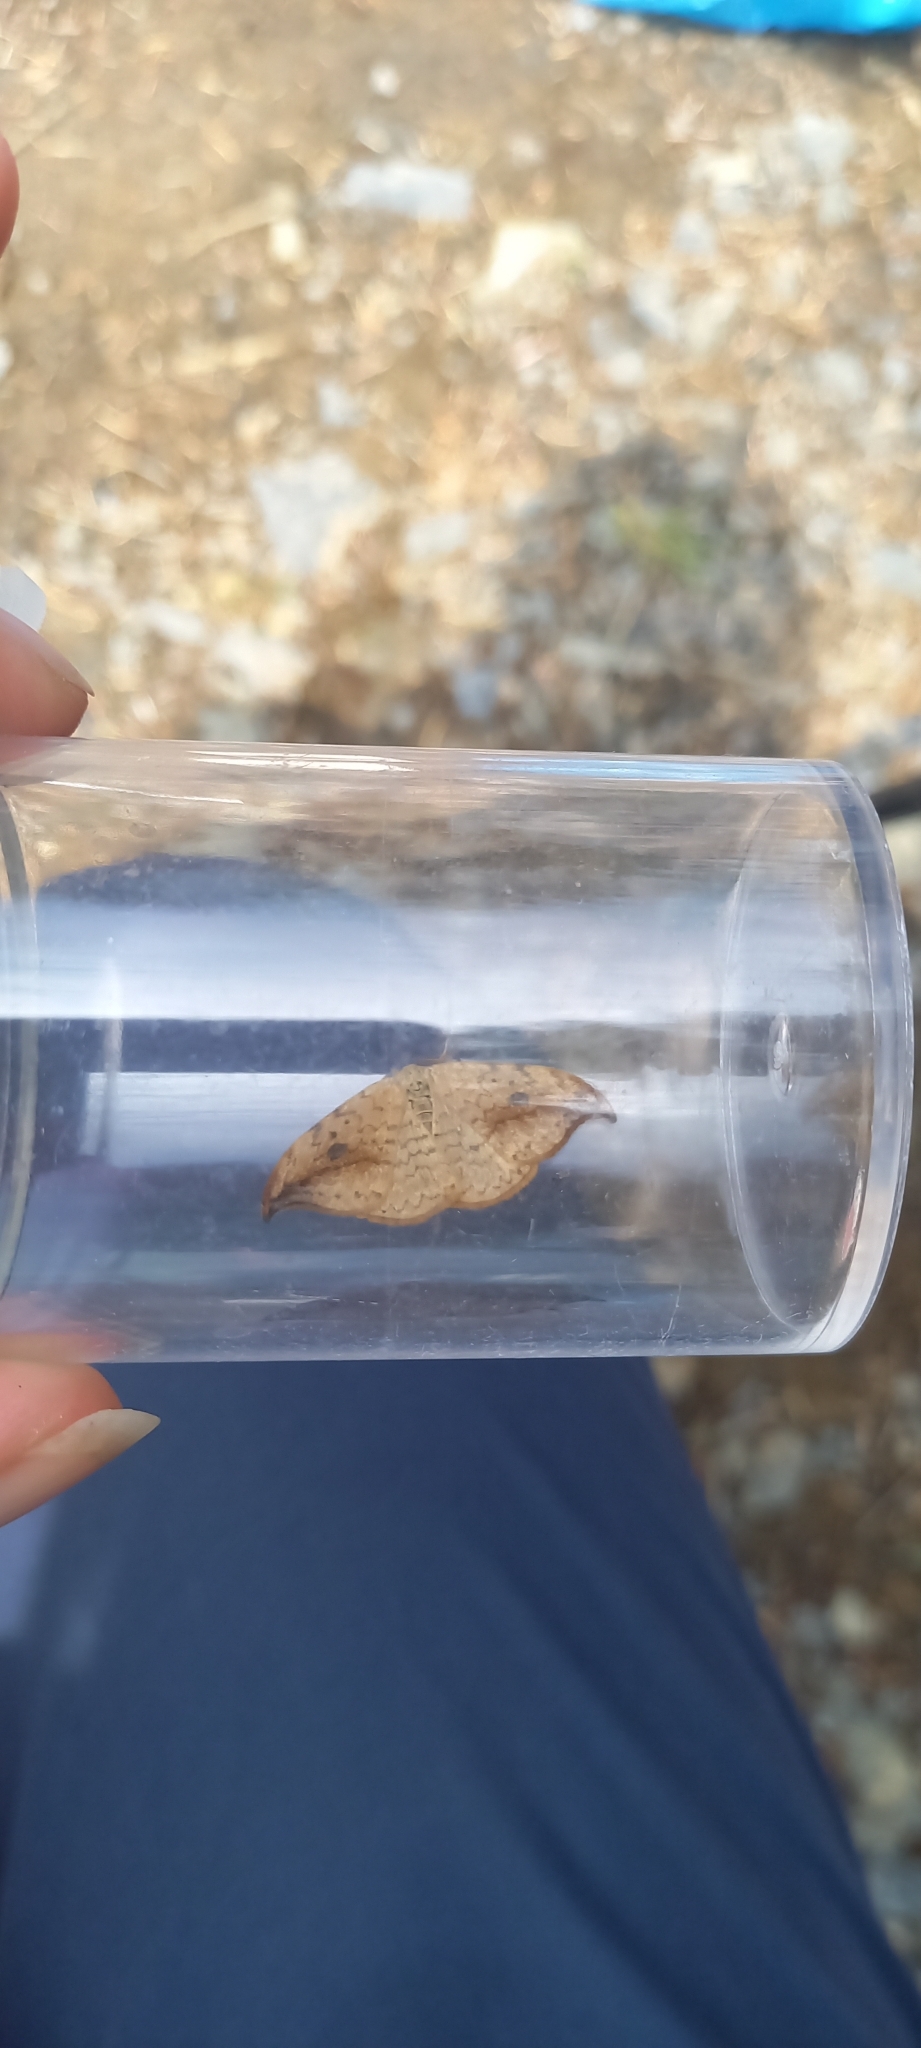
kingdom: Animalia
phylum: Arthropoda
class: Insecta
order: Lepidoptera
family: Drepanidae
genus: Drepana
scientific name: Drepana falcataria
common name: Pebble hook-tip
